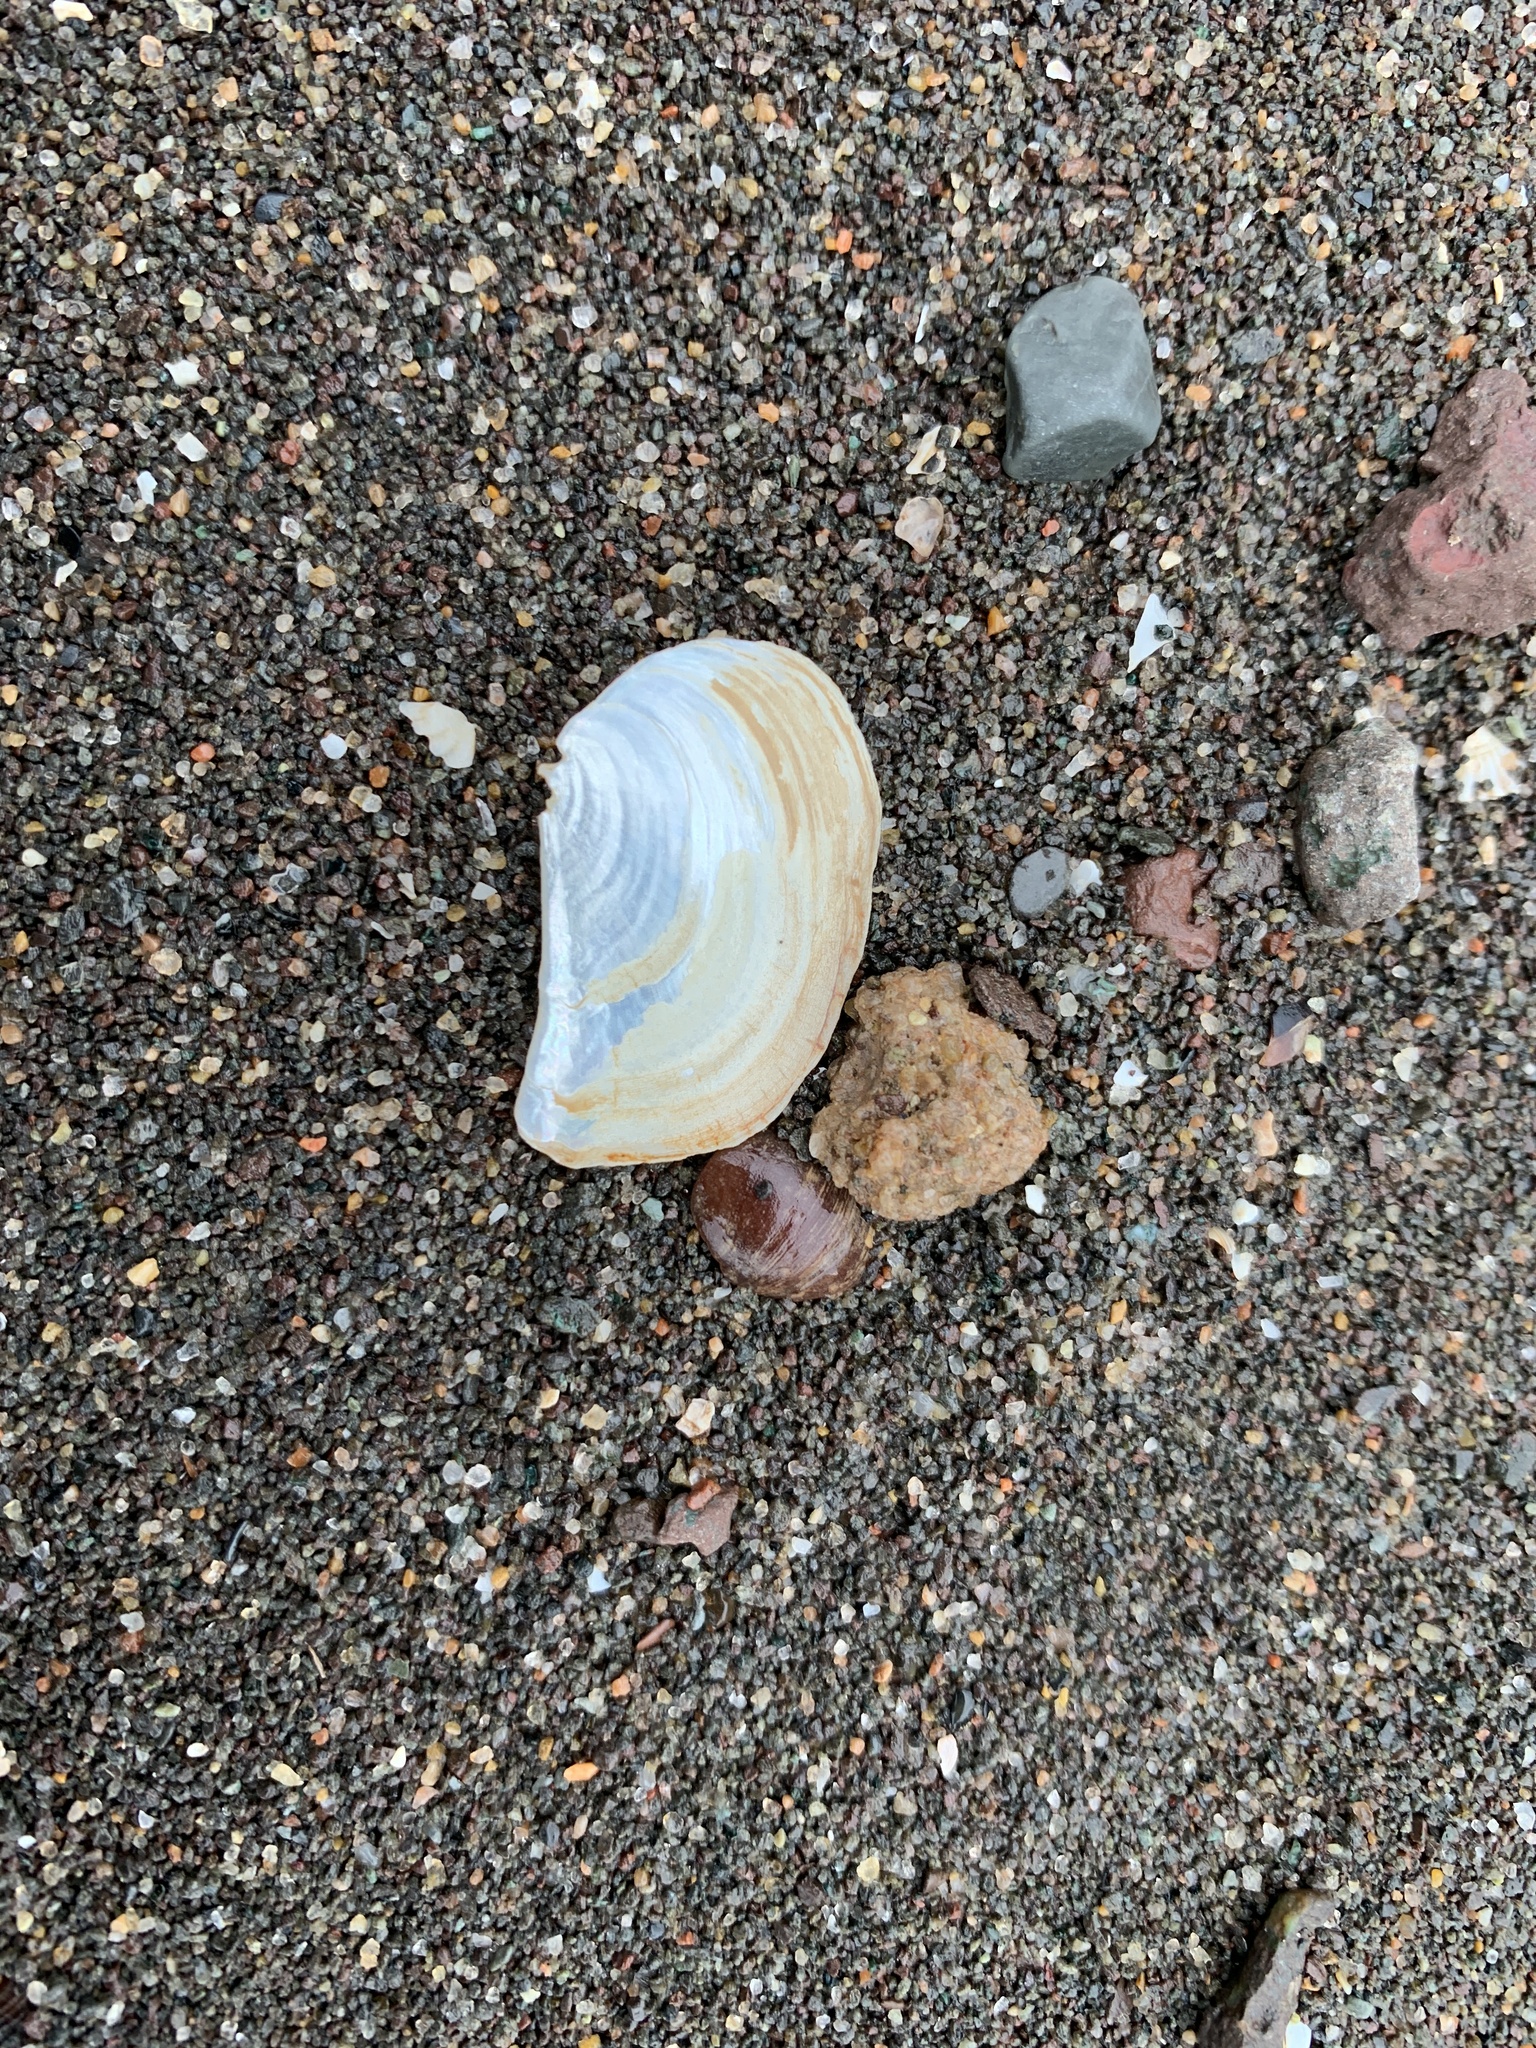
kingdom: Animalia
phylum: Mollusca
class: Bivalvia
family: Pandoridae
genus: Pandora
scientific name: Pandora gouldiana
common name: Rounded pandora
